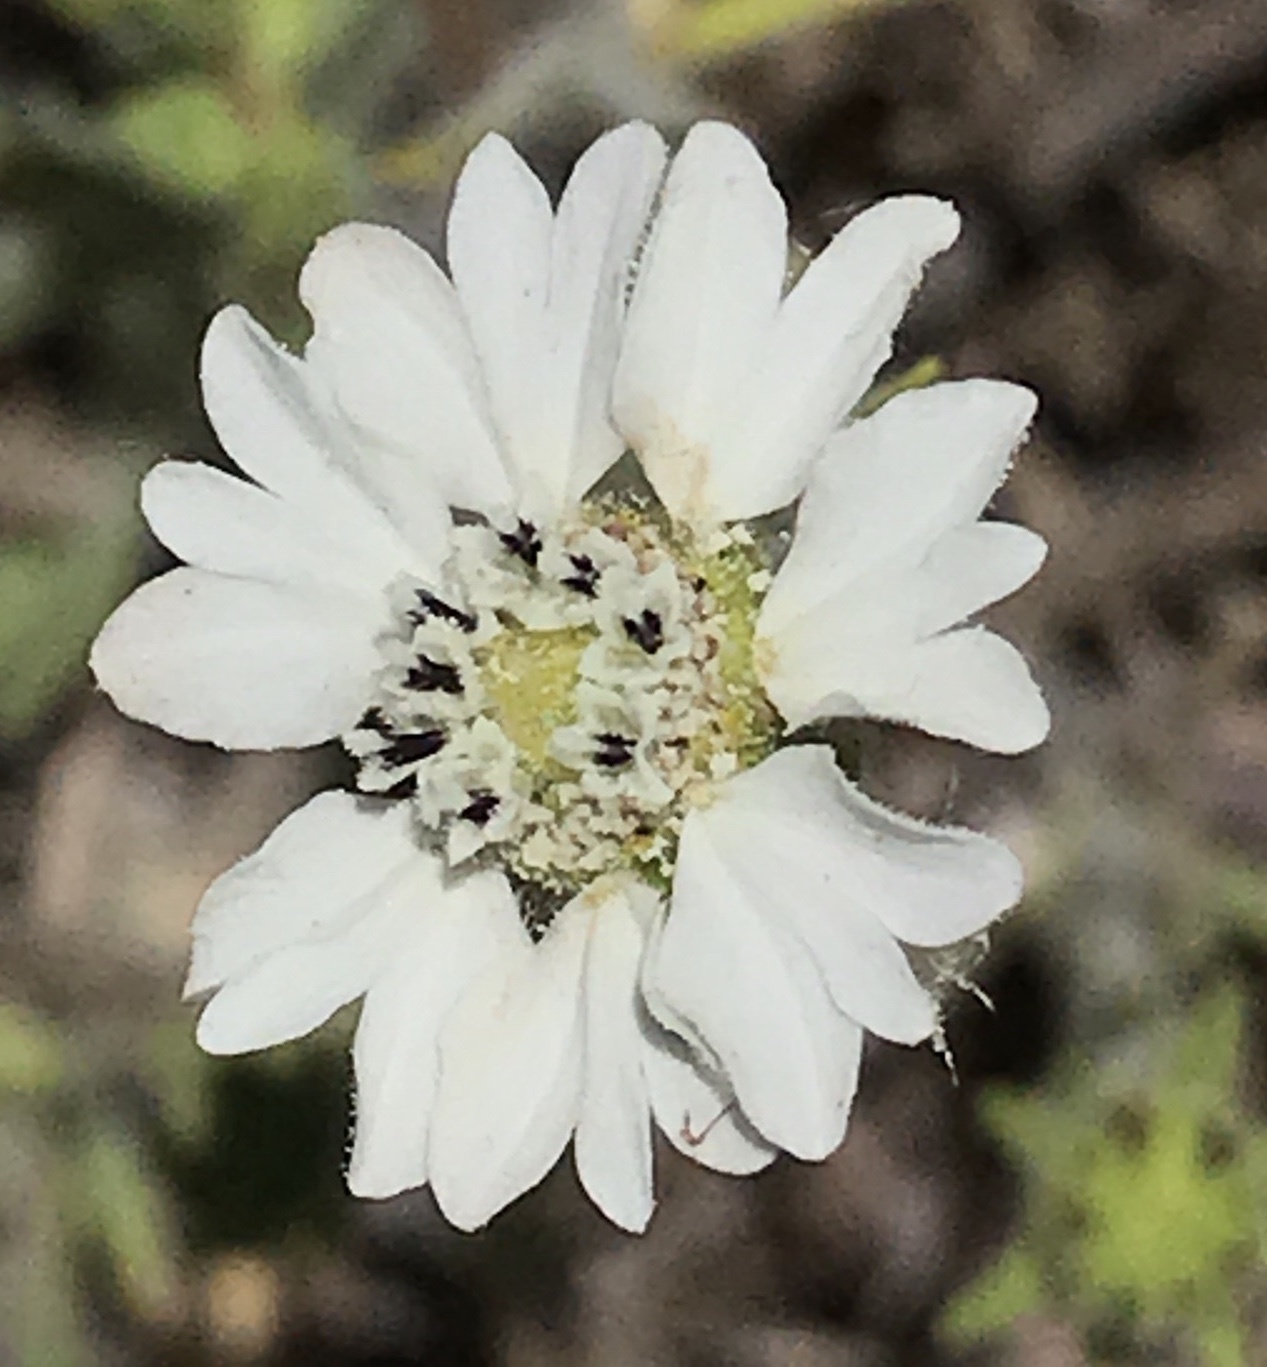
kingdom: Plantae
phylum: Tracheophyta
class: Magnoliopsida
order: Asterales
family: Asteraceae
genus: Hemizonia
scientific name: Hemizonia congesta
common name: Hayfield tarweed
